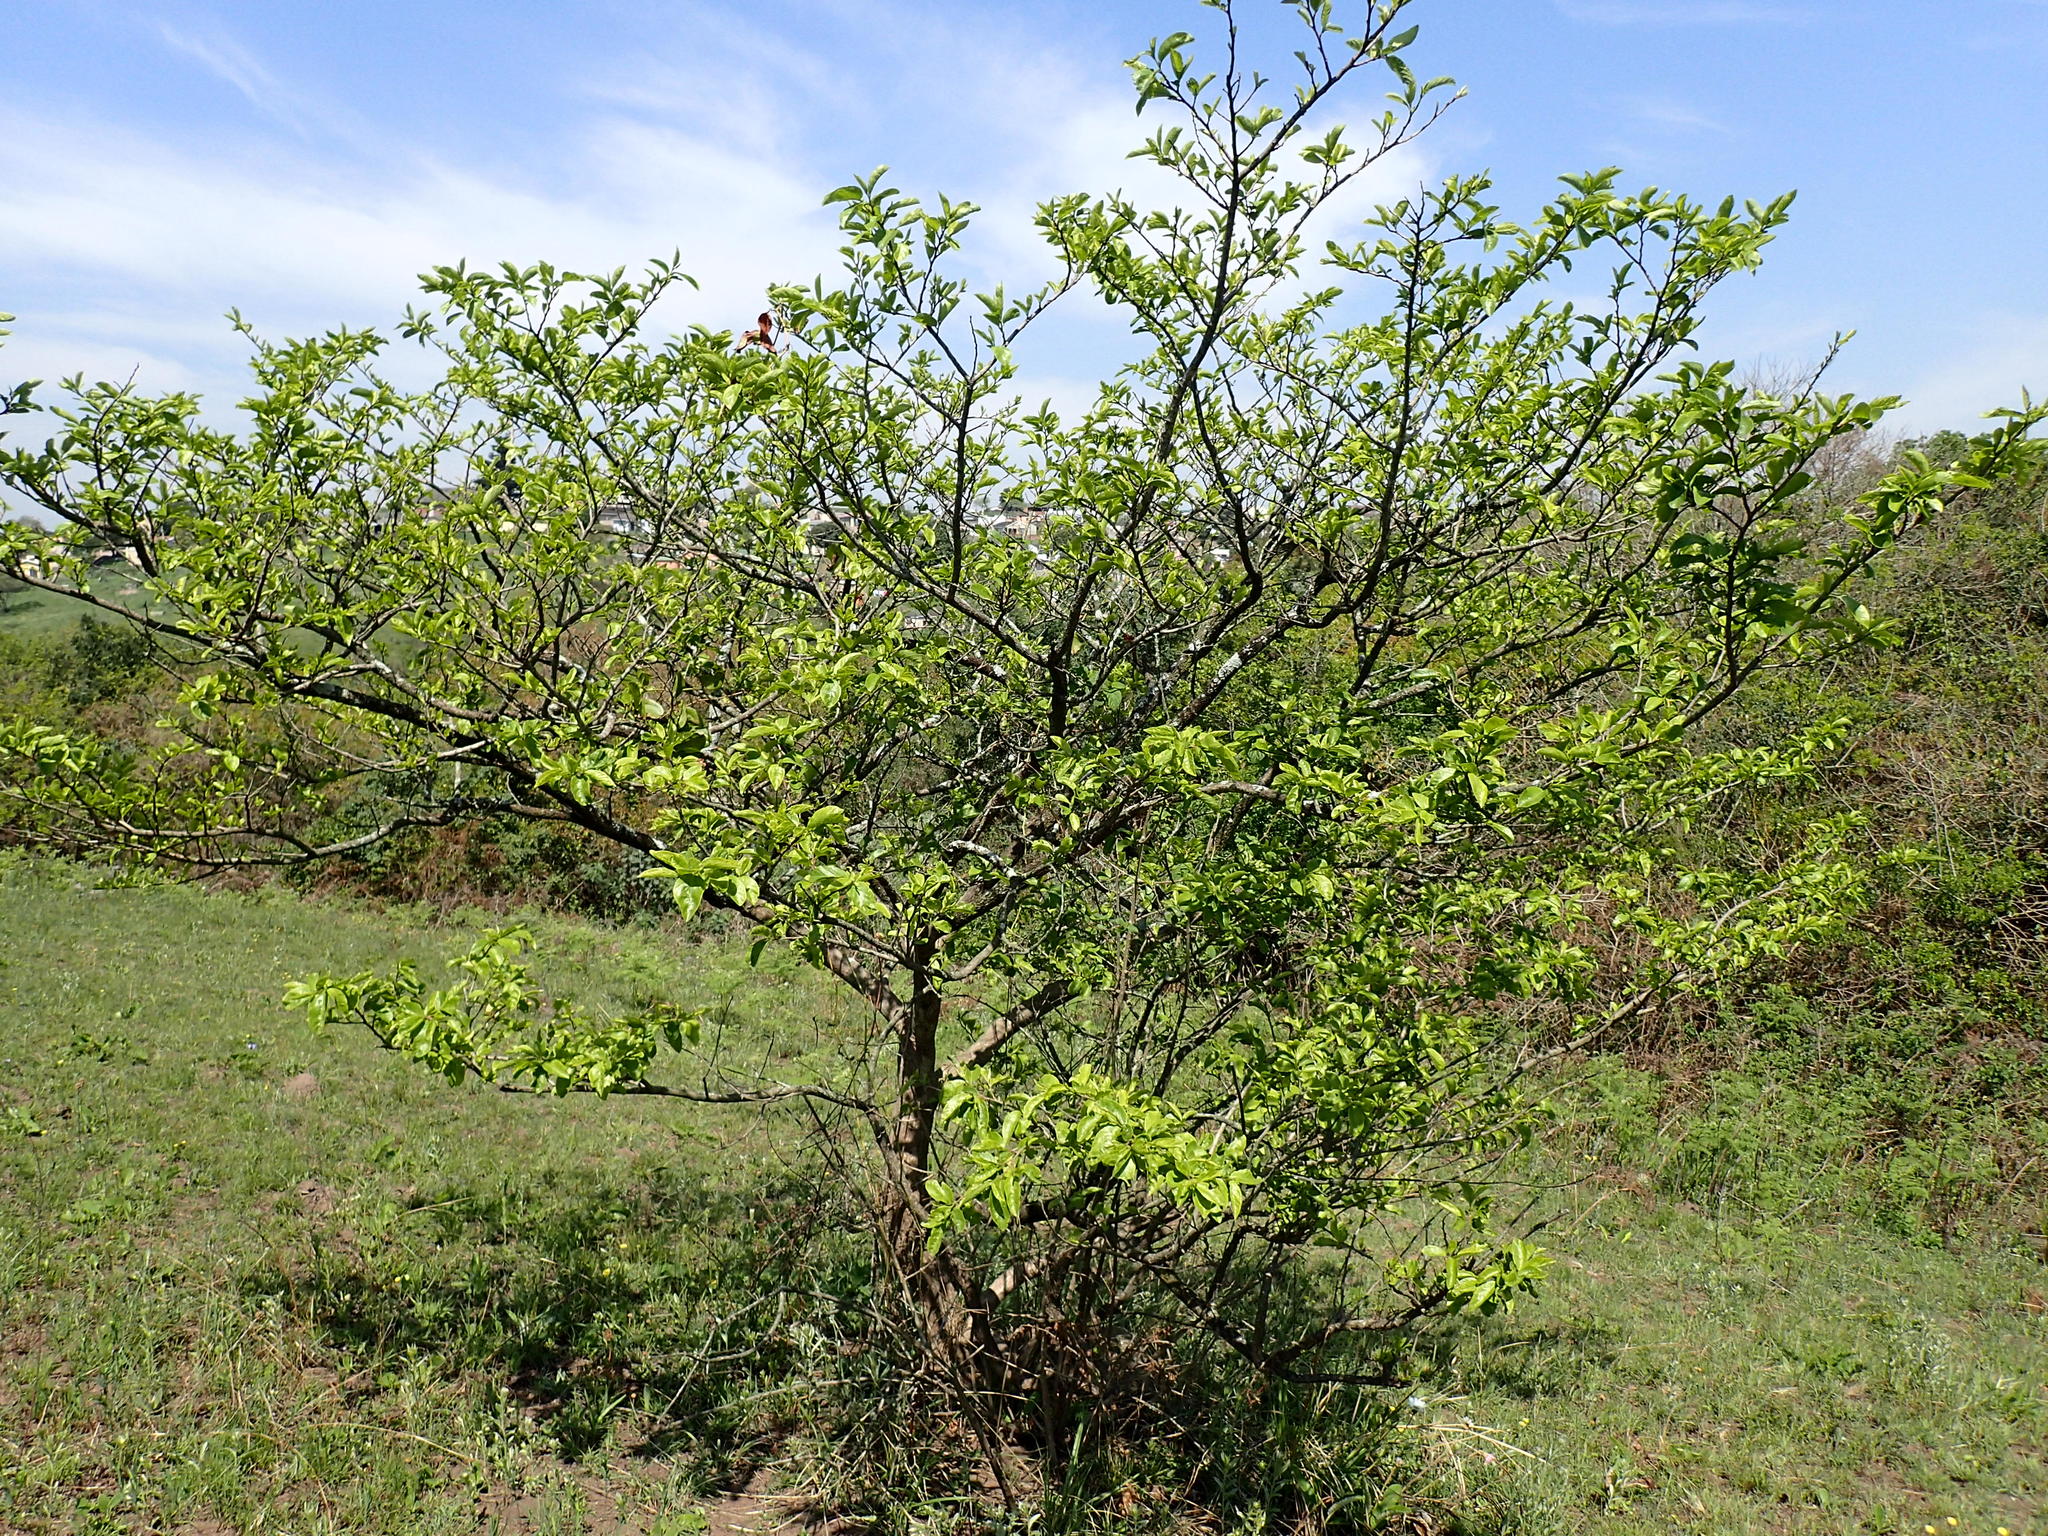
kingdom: Plantae
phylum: Tracheophyta
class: Magnoliopsida
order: Malpighiales
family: Phyllanthaceae
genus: Antidesma
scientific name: Antidesma venosum
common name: Tassel-berry
